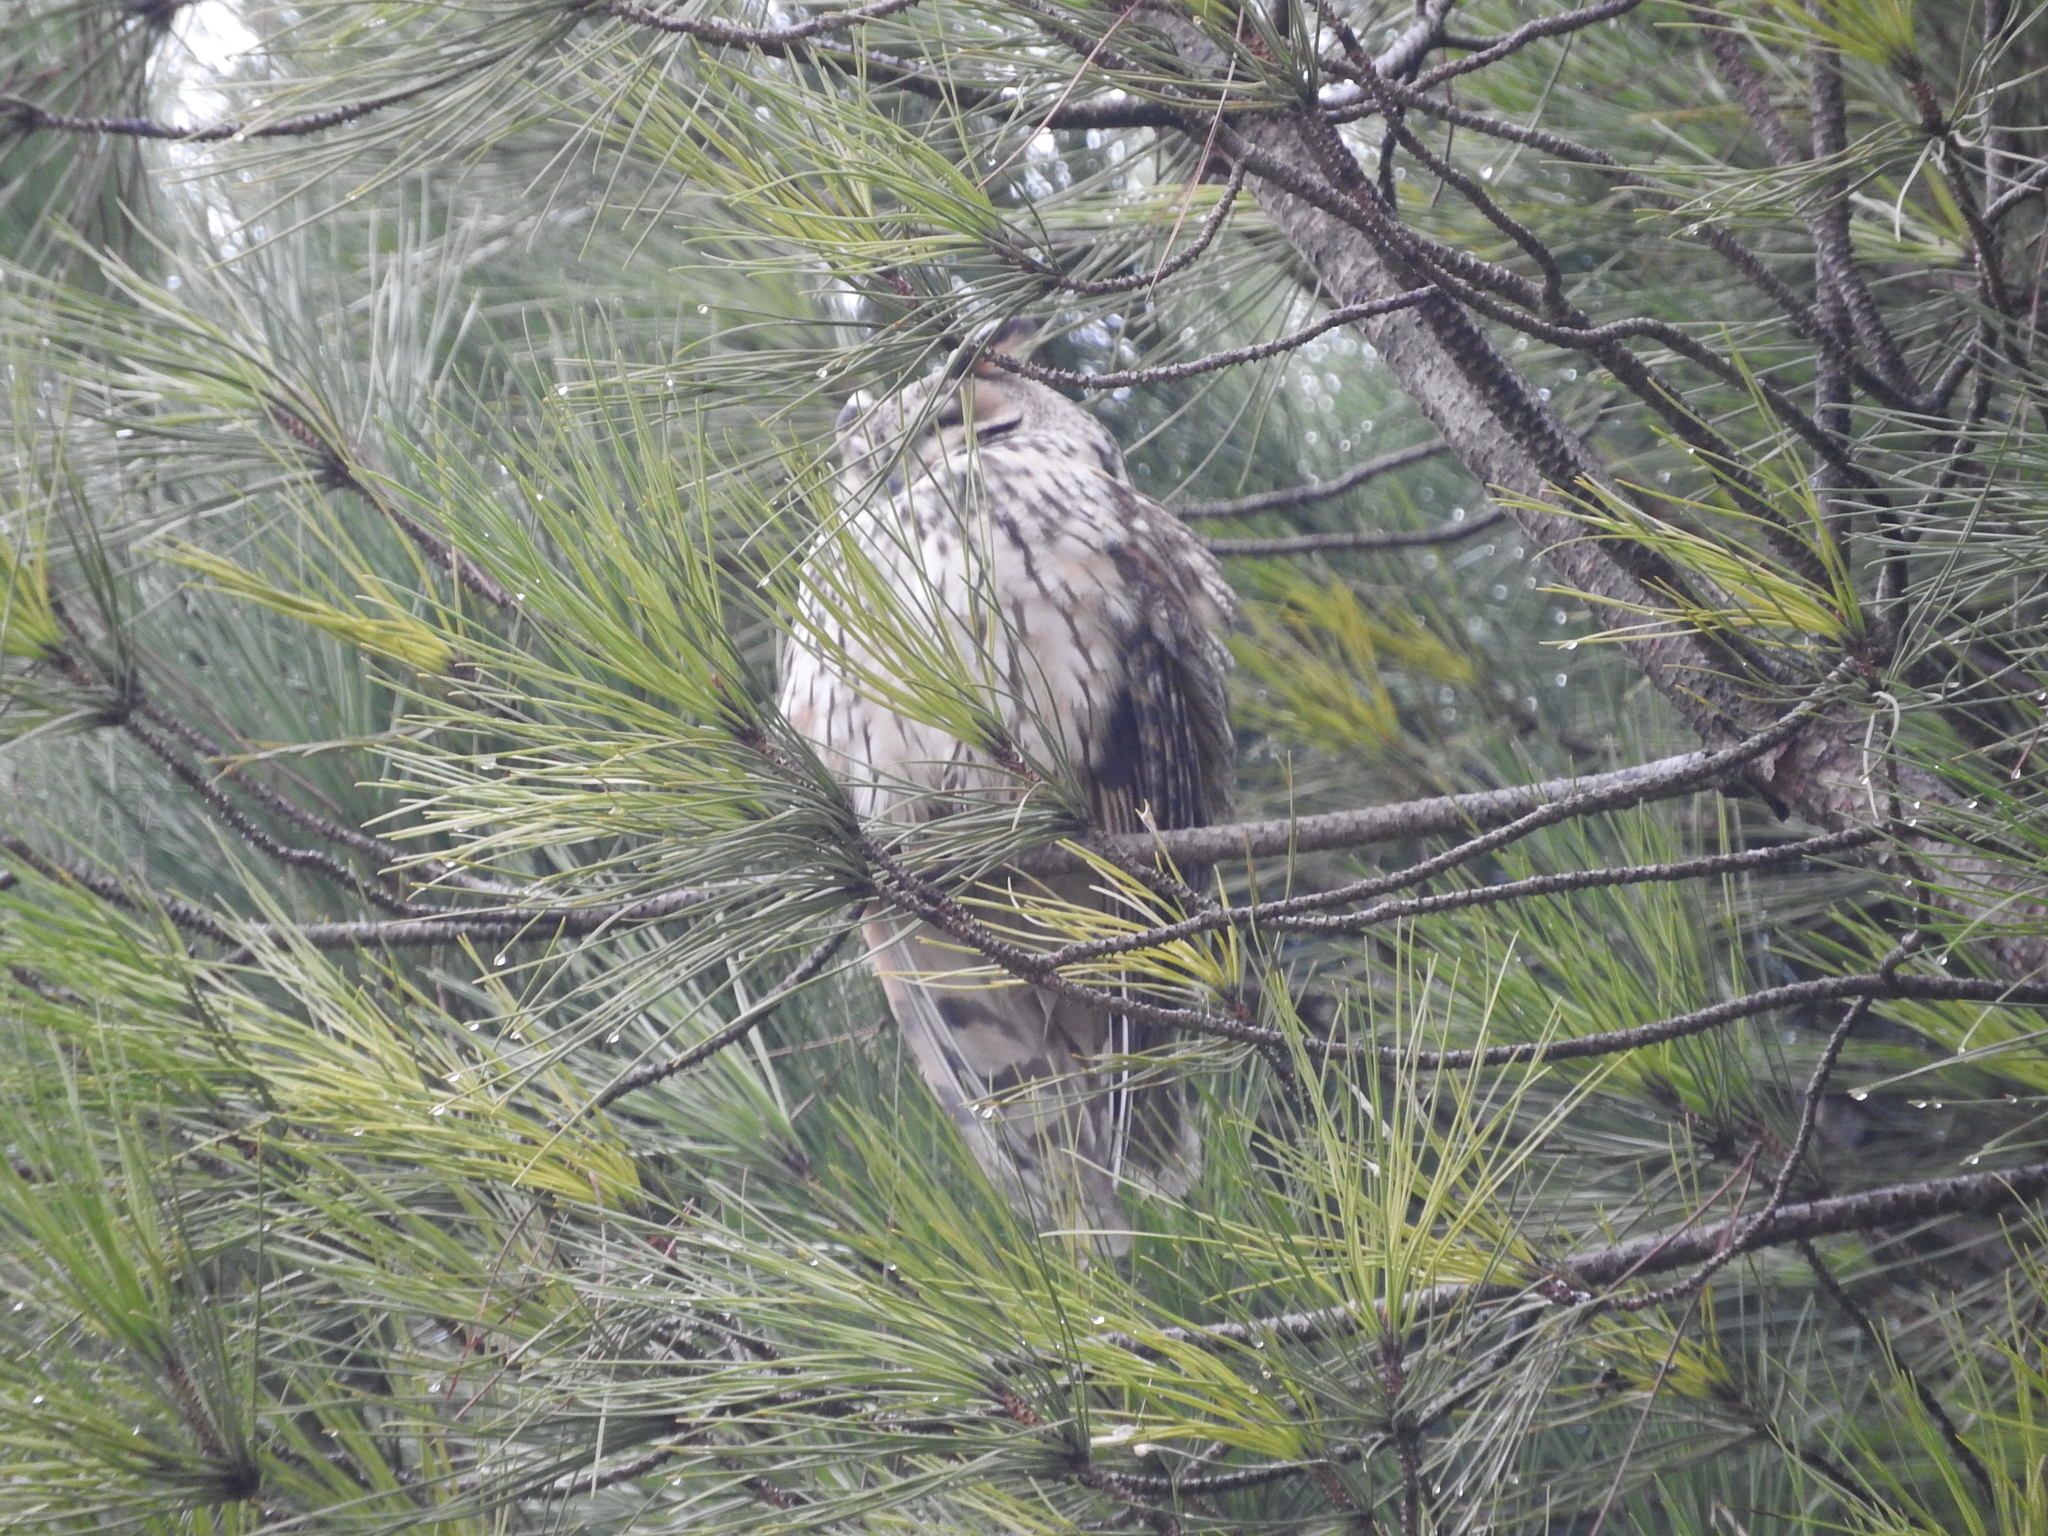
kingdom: Animalia
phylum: Chordata
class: Aves
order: Strigiformes
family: Strigidae
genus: Asio
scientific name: Asio otus
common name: Long-eared owl
